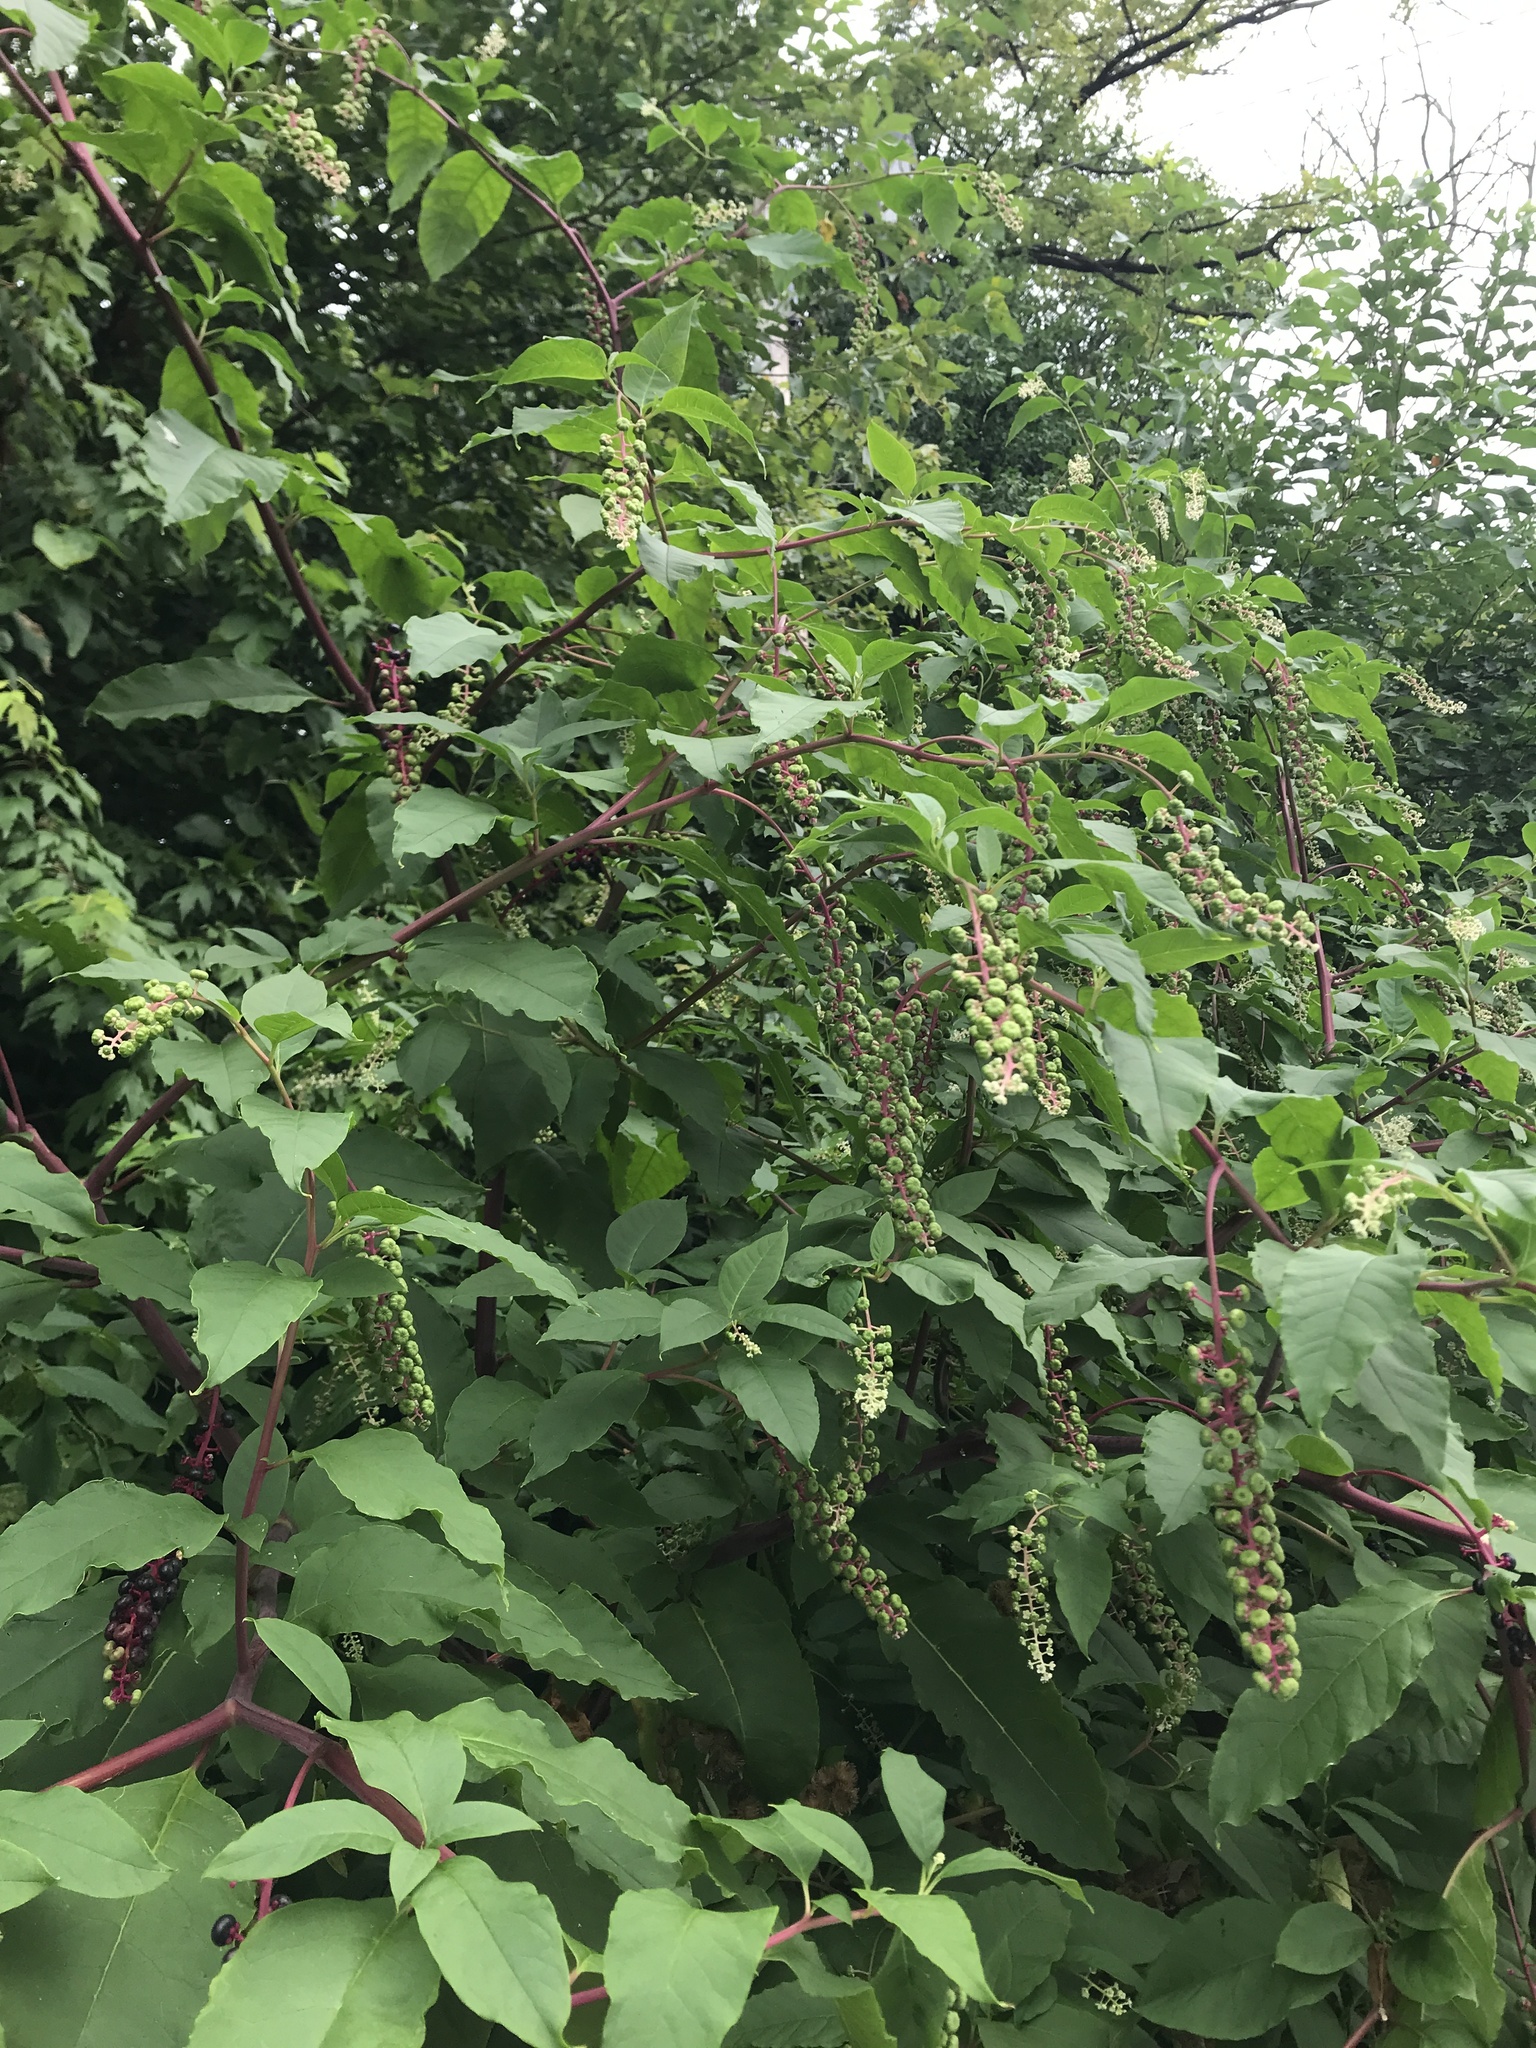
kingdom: Plantae
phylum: Tracheophyta
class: Magnoliopsida
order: Caryophyllales
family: Phytolaccaceae
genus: Phytolacca
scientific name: Phytolacca americana
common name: American pokeweed
